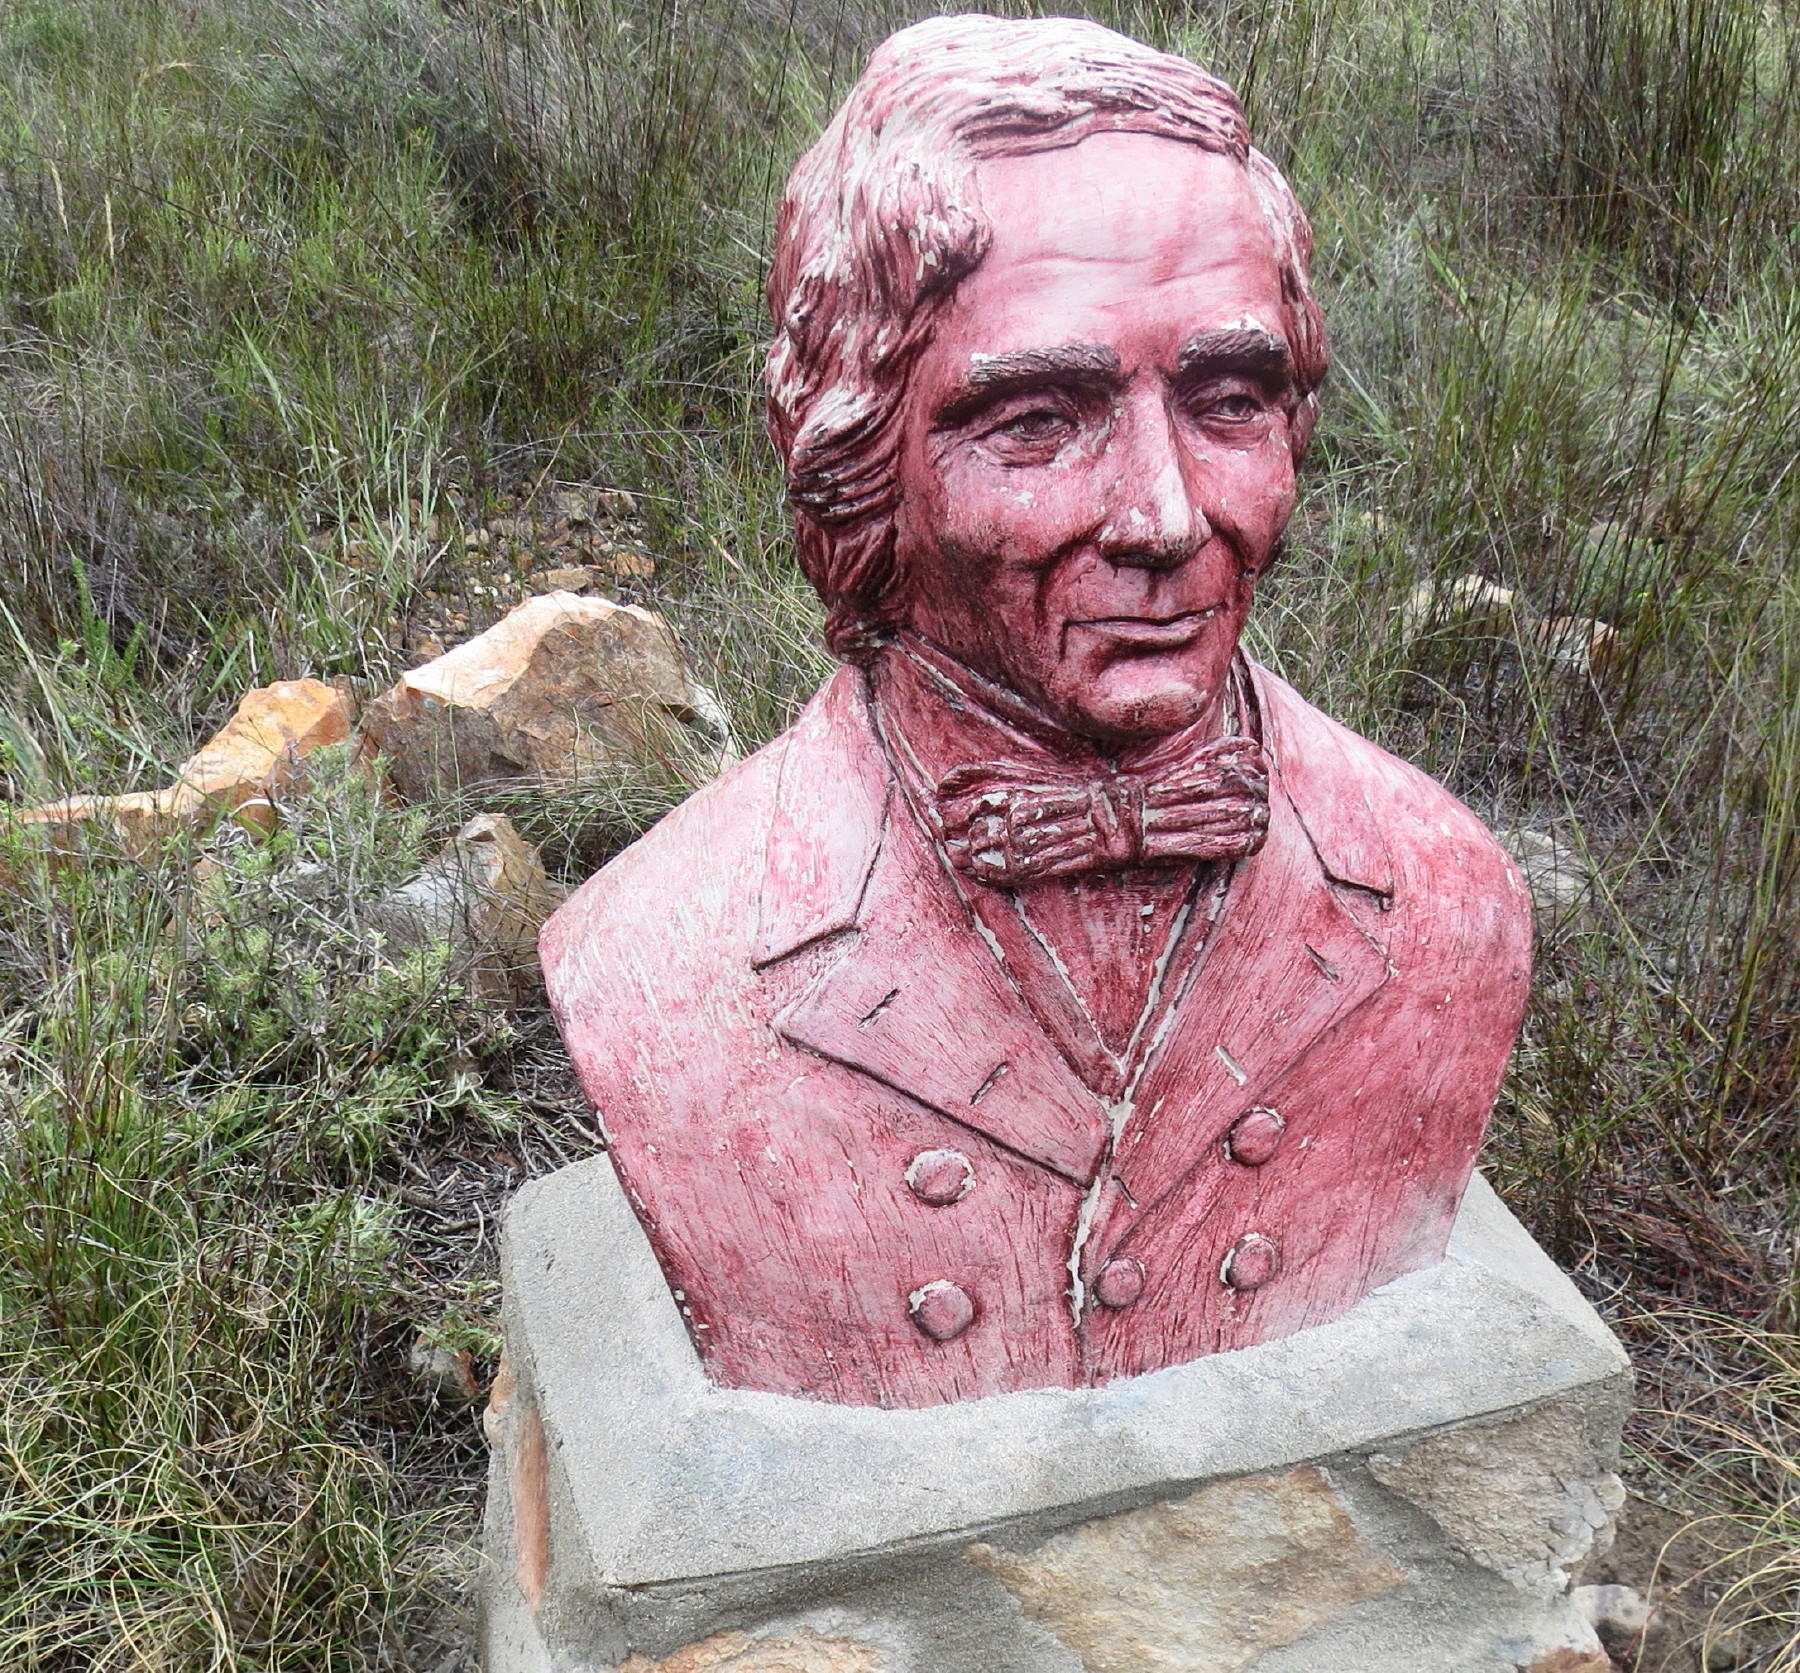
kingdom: Plantae
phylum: Tracheophyta
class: Magnoliopsida
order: Proteales
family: Proteaceae
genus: Protea
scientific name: Protea neriifolia
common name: Blue sugarbush
